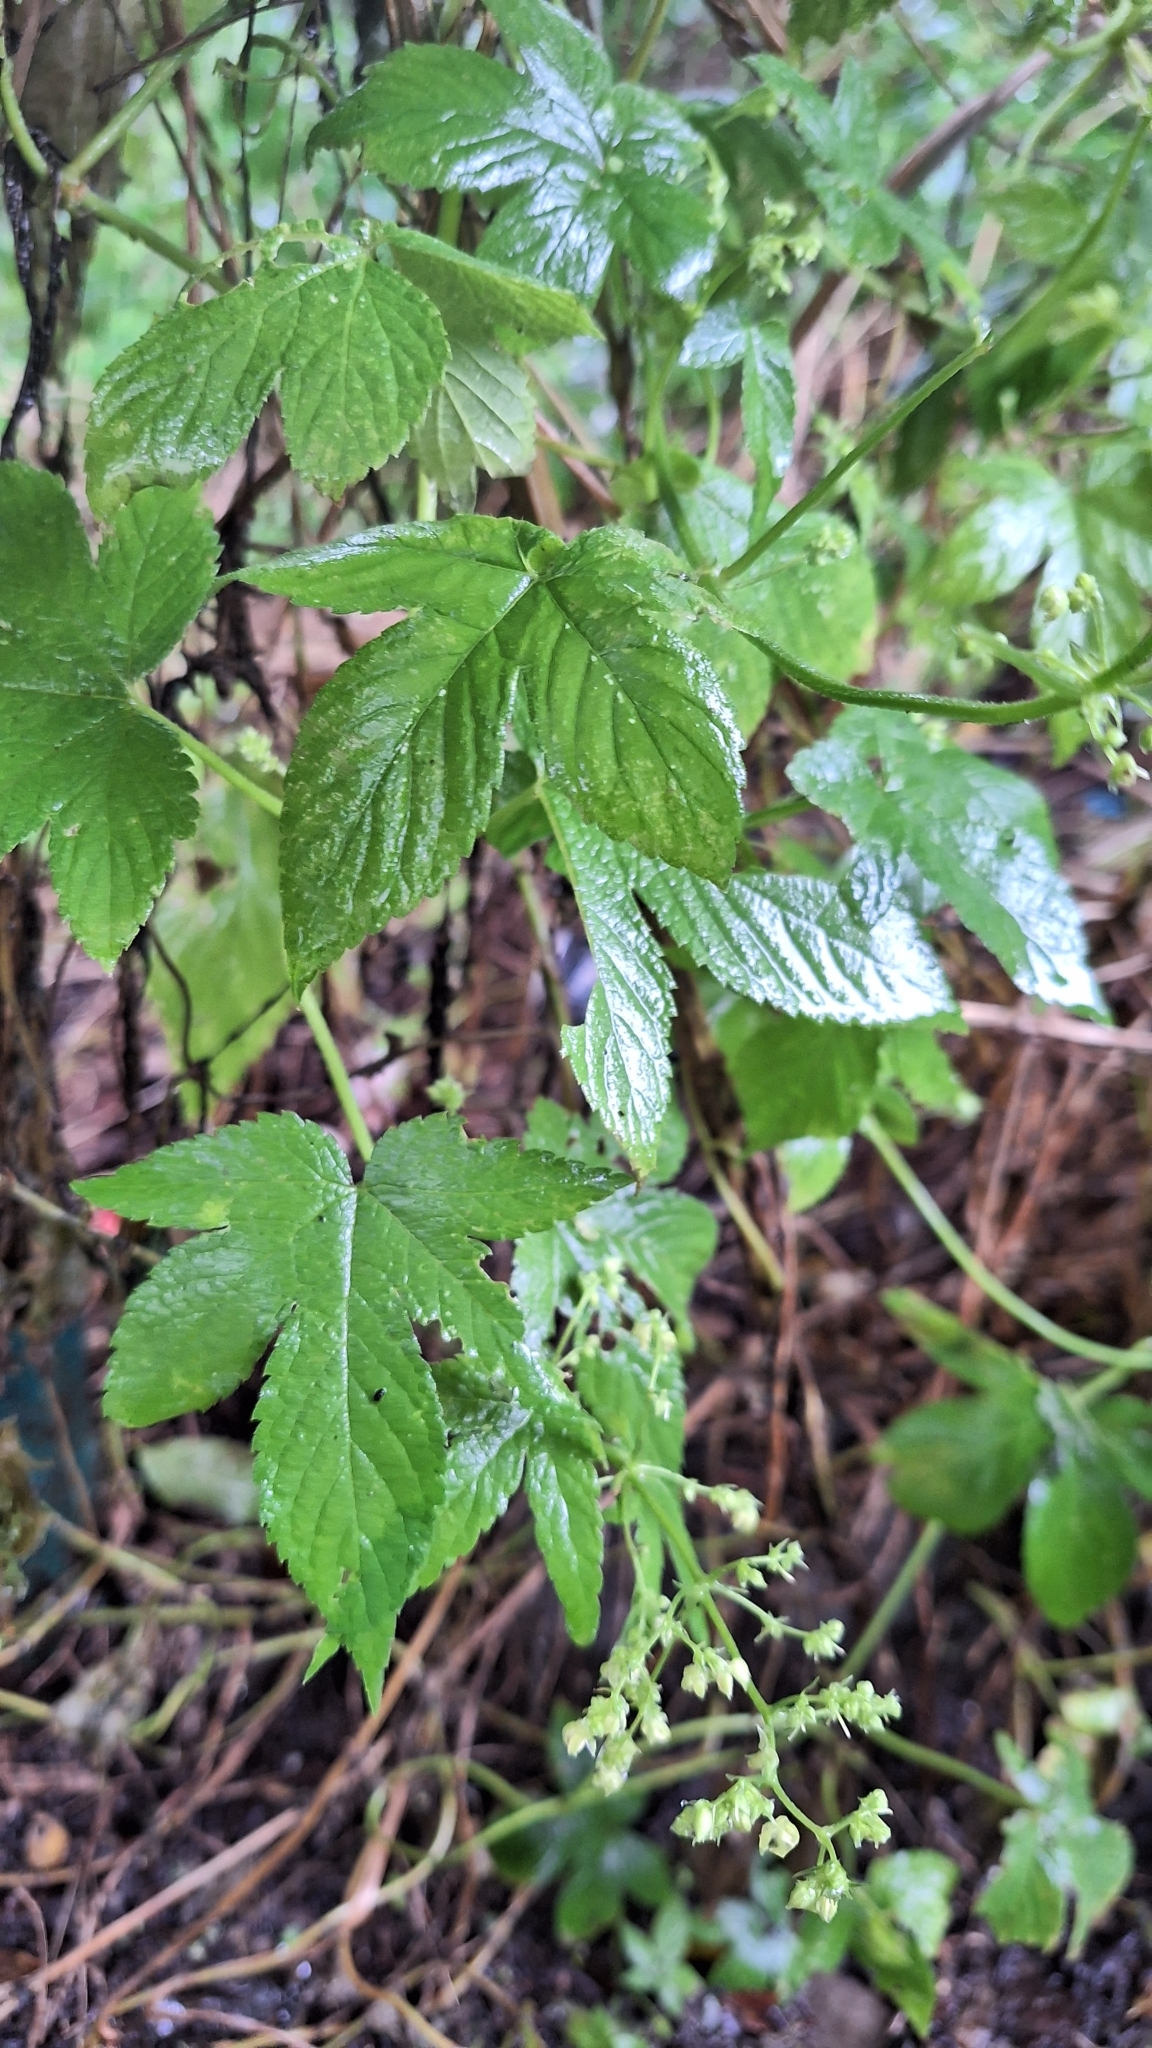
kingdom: Plantae
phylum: Tracheophyta
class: Magnoliopsida
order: Rosales
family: Cannabaceae
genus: Humulus
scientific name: Humulus scandens
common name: Japanese hop
